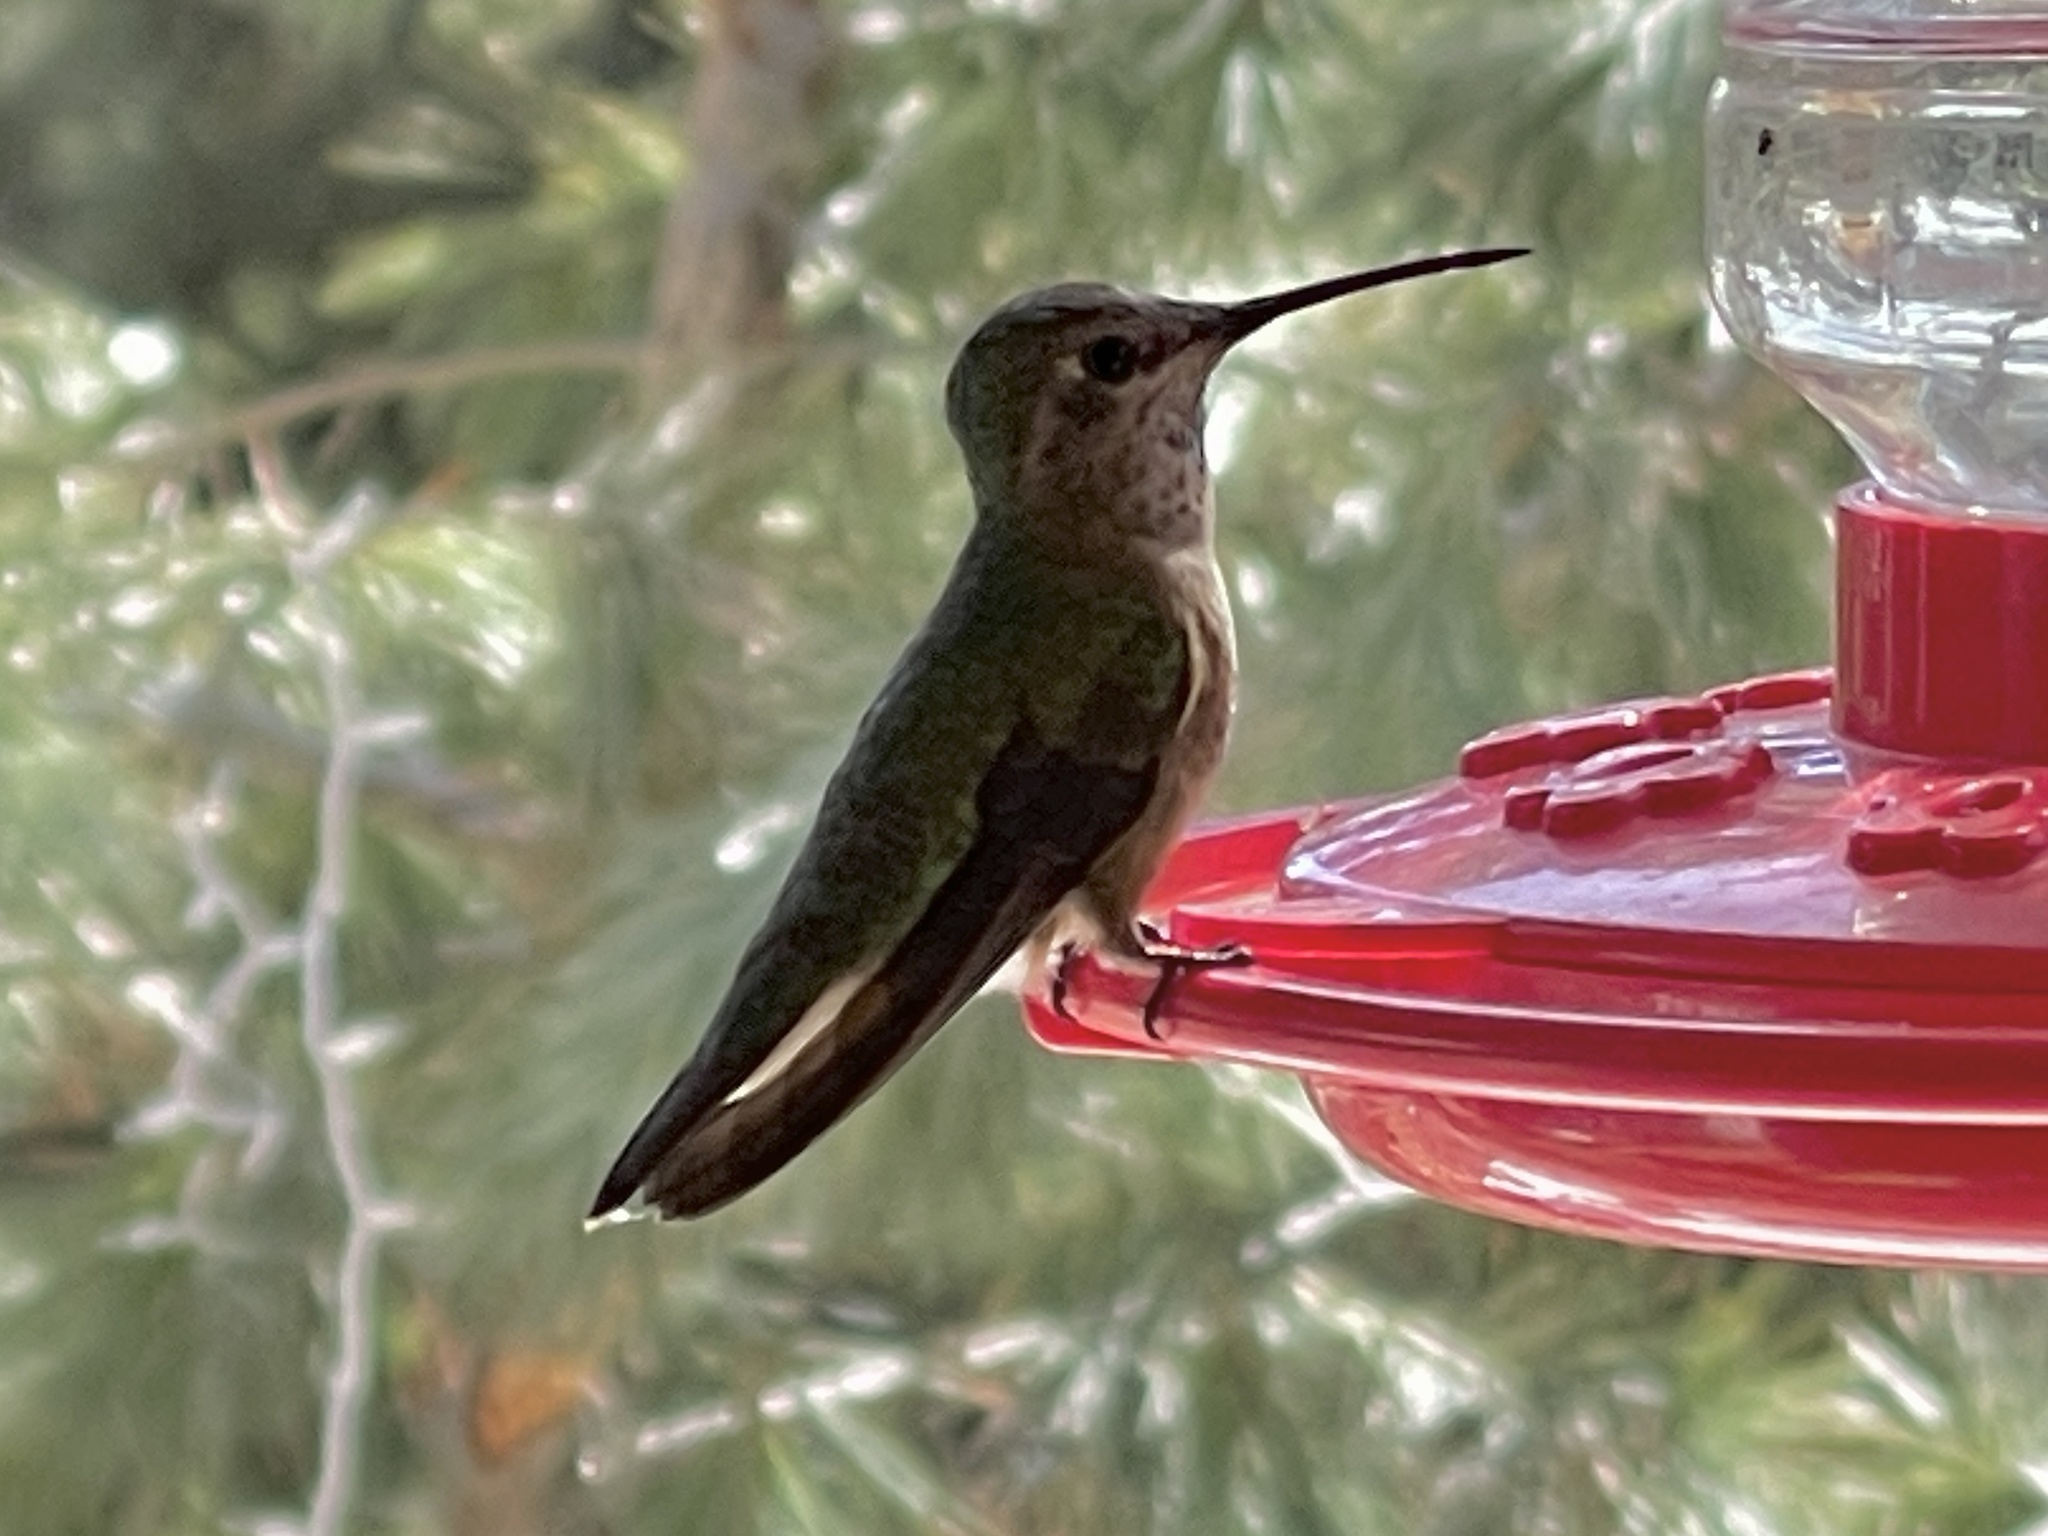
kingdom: Animalia
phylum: Chordata
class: Aves
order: Apodiformes
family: Trochilidae
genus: Selasphorus
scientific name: Selasphorus platycercus
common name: Broad-tailed hummingbird
